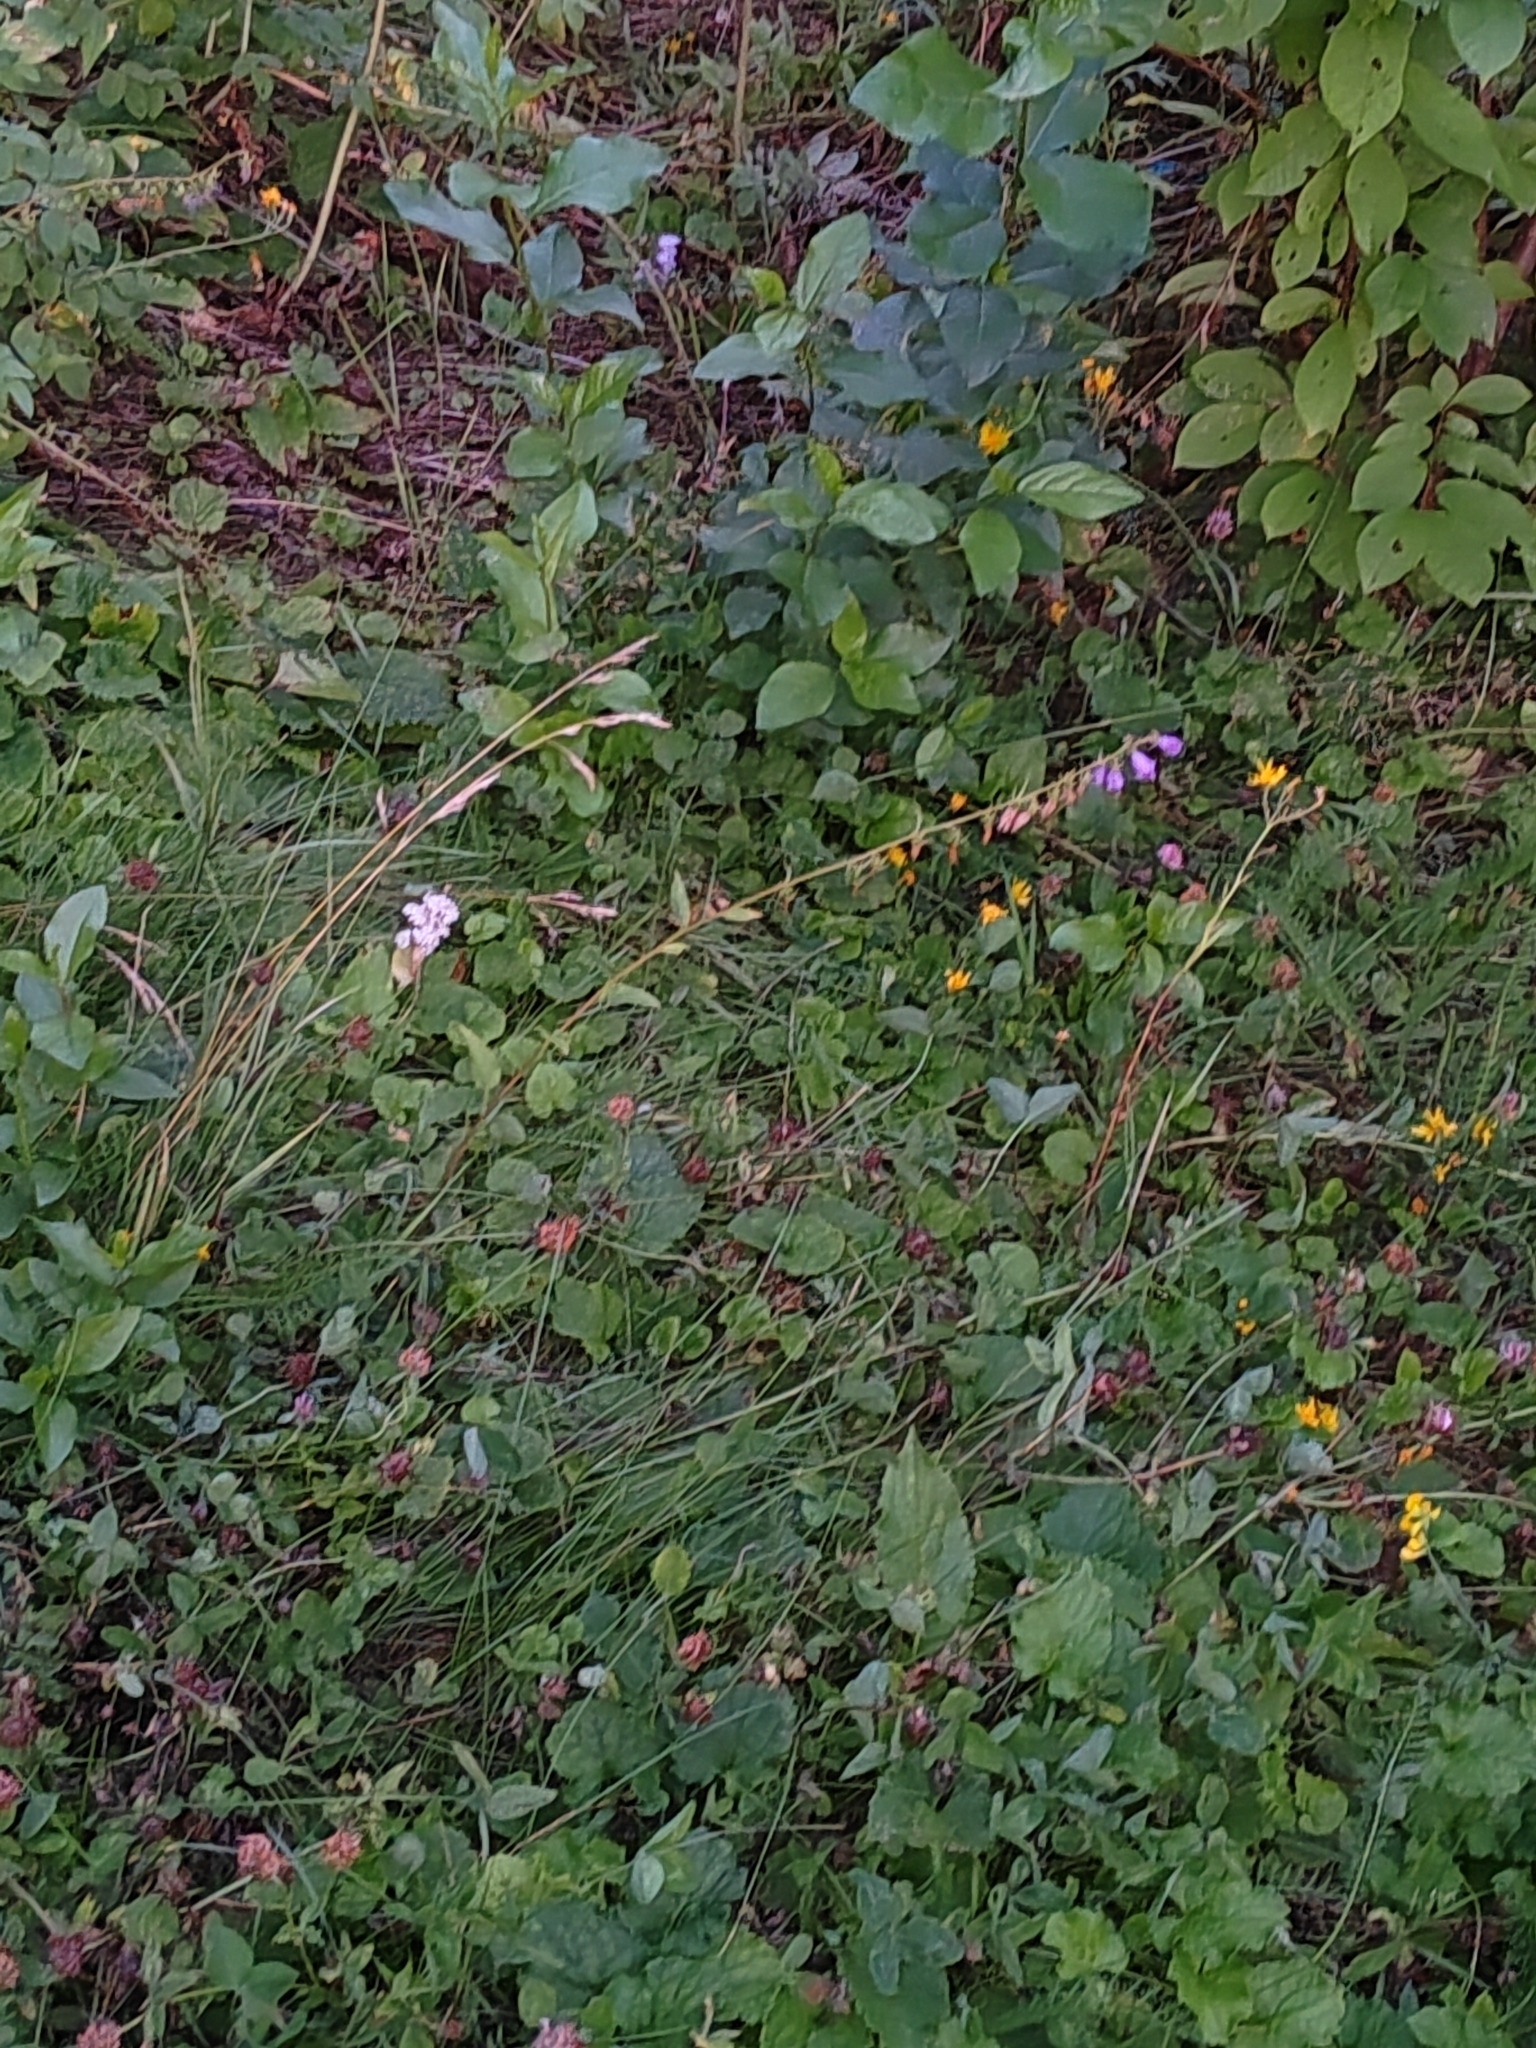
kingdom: Plantae
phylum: Tracheophyta
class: Magnoliopsida
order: Asterales
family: Campanulaceae
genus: Campanula
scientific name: Campanula rapunculoides
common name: Creeping bellflower
